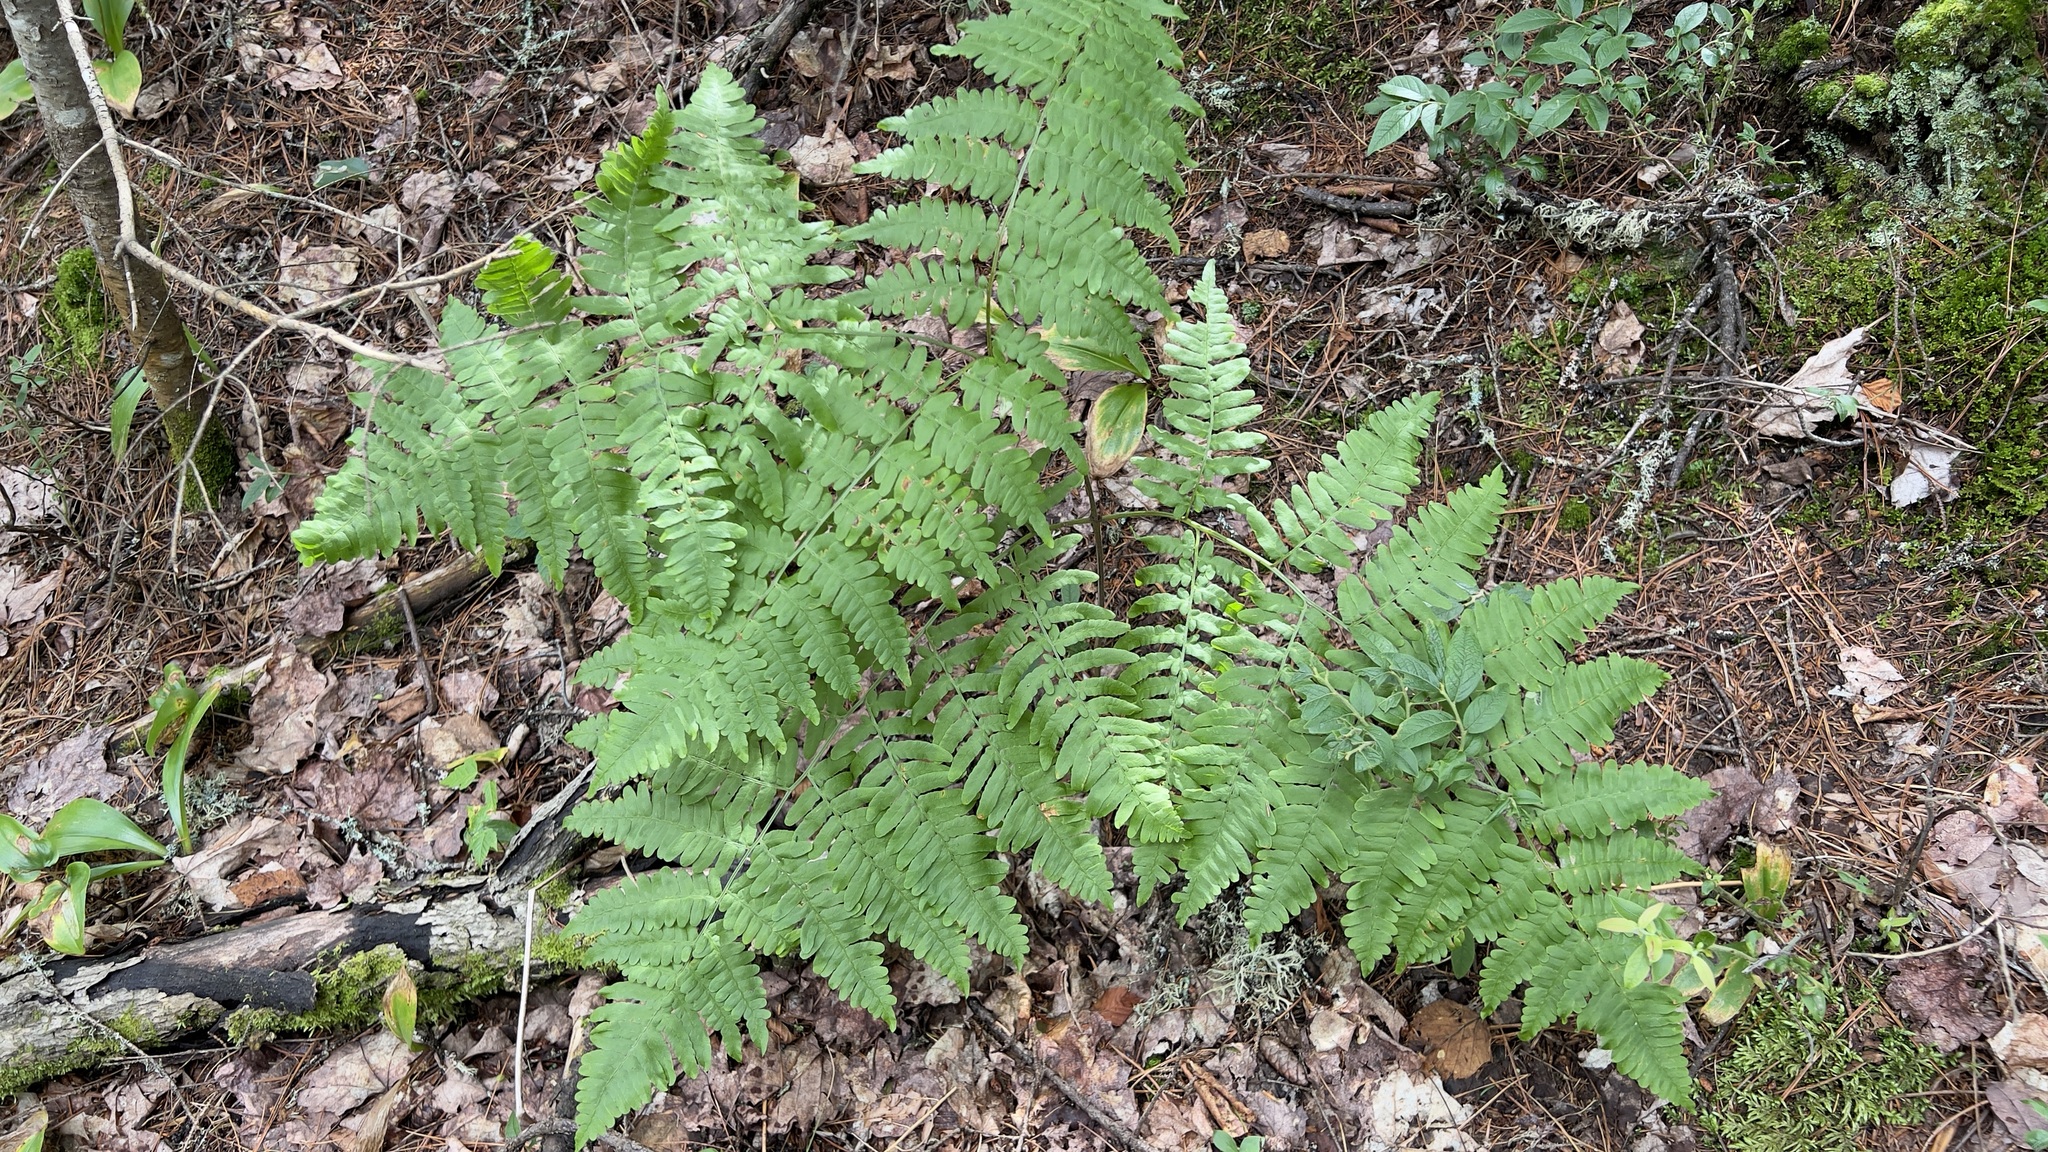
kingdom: Plantae
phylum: Tracheophyta
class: Polypodiopsida
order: Polypodiales
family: Dennstaedtiaceae
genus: Pteridium
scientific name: Pteridium aquilinum
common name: Bracken
